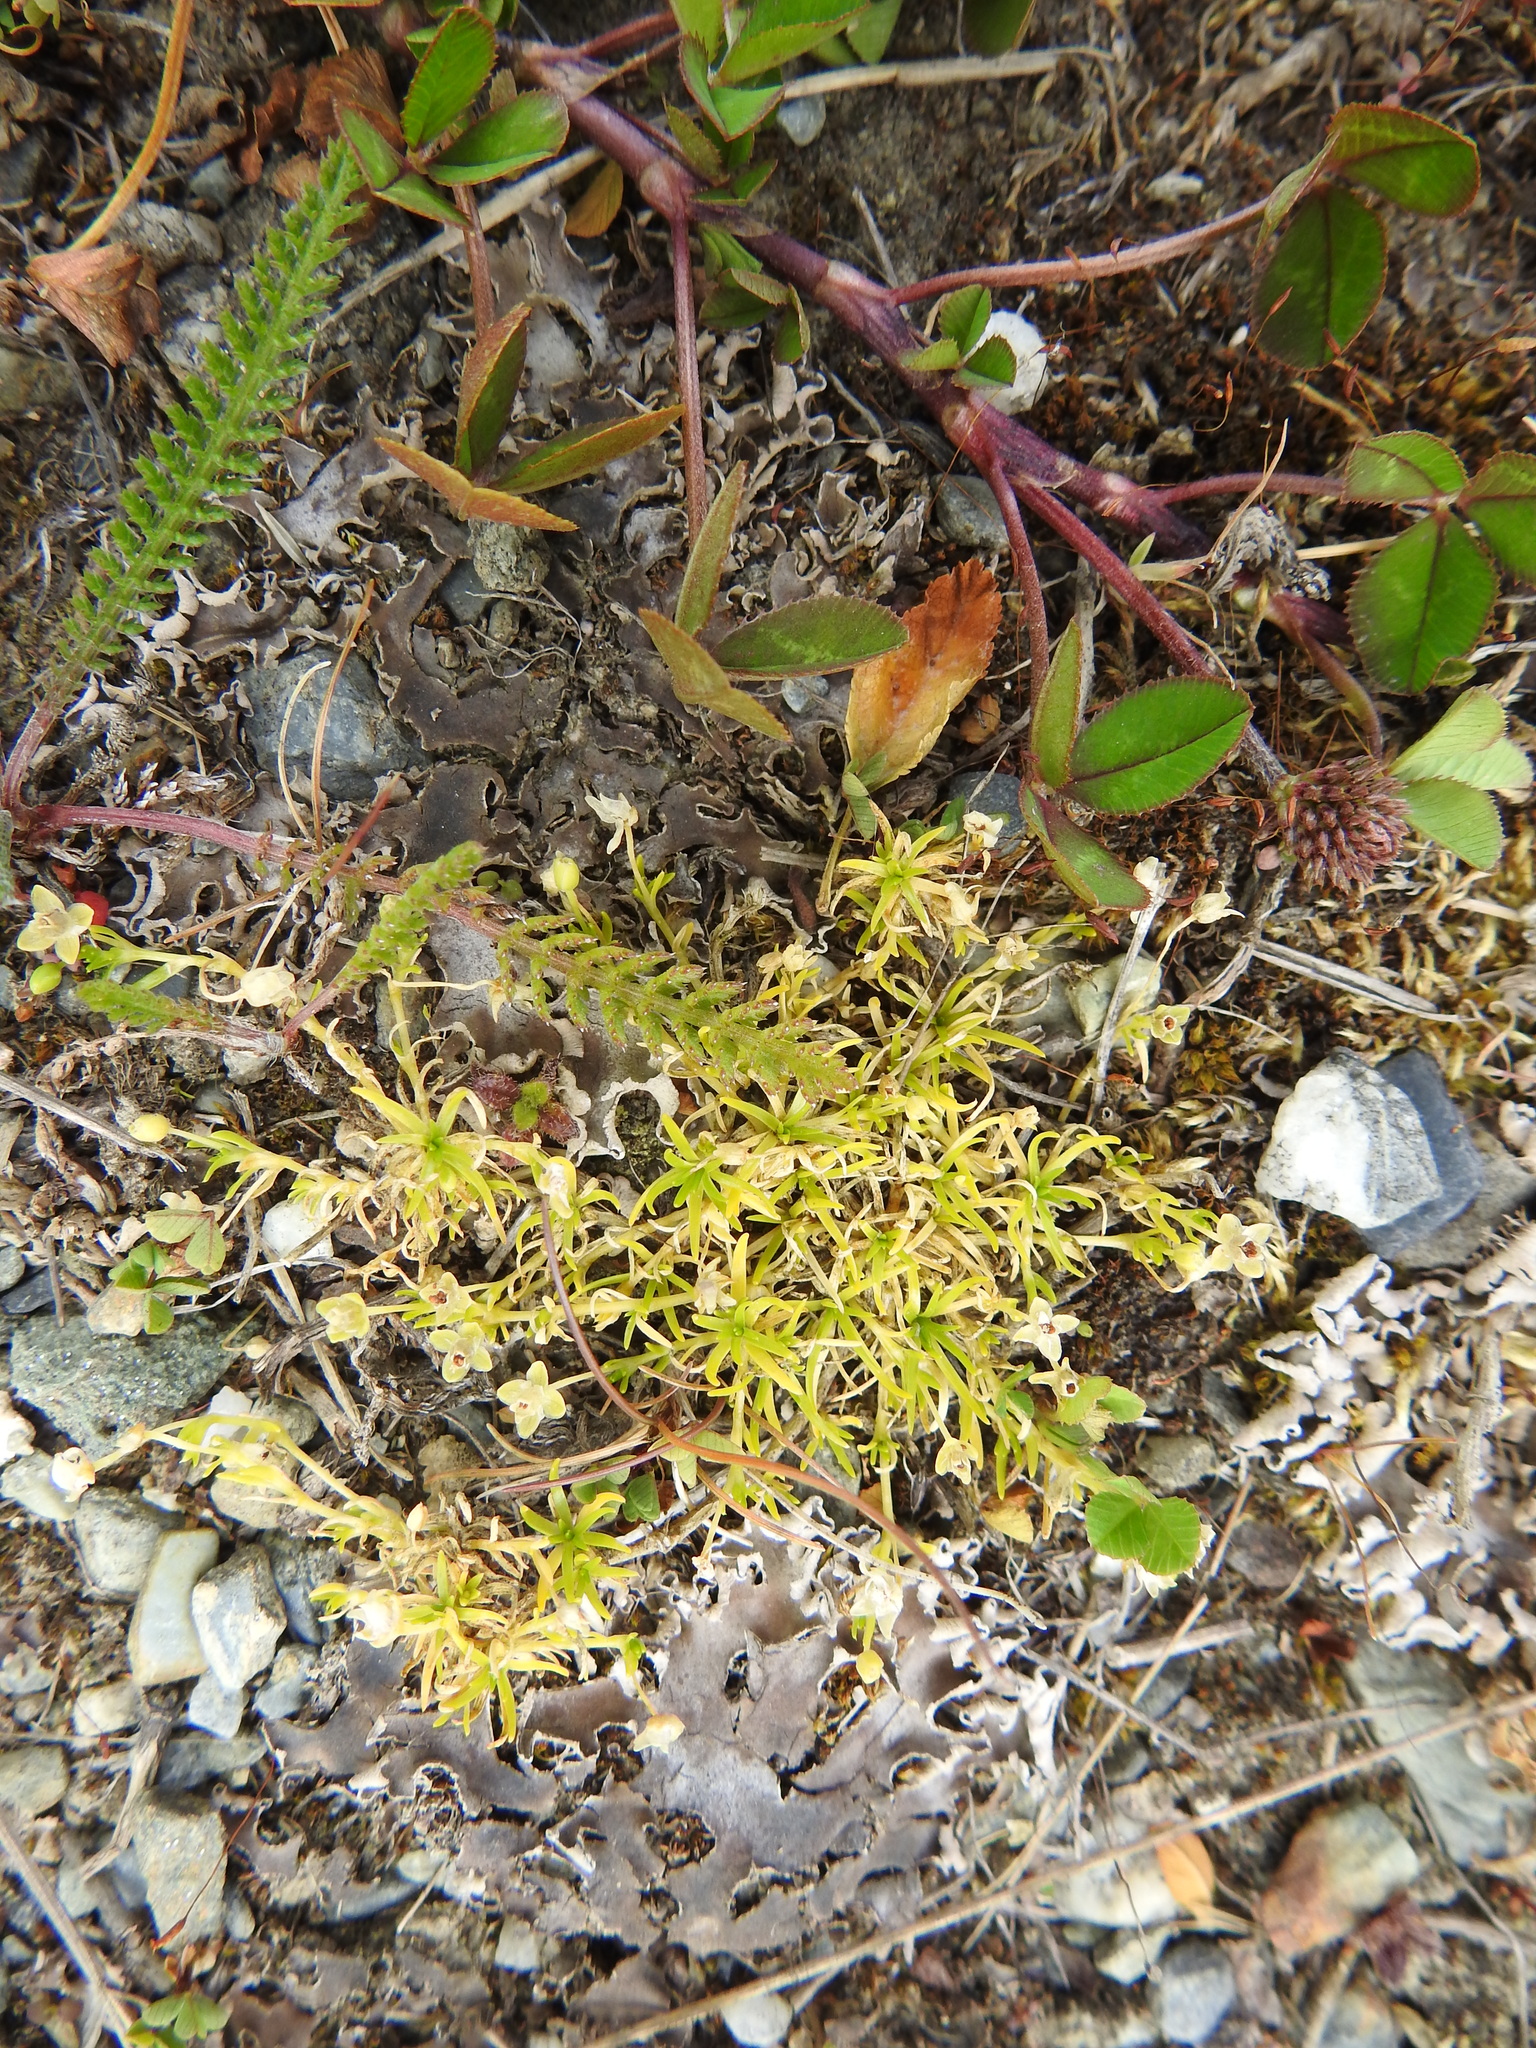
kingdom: Plantae
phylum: Tracheophyta
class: Magnoliopsida
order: Caryophyllales
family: Caryophyllaceae
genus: Sagina
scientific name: Sagina procumbens
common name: Procumbent pearlwort
